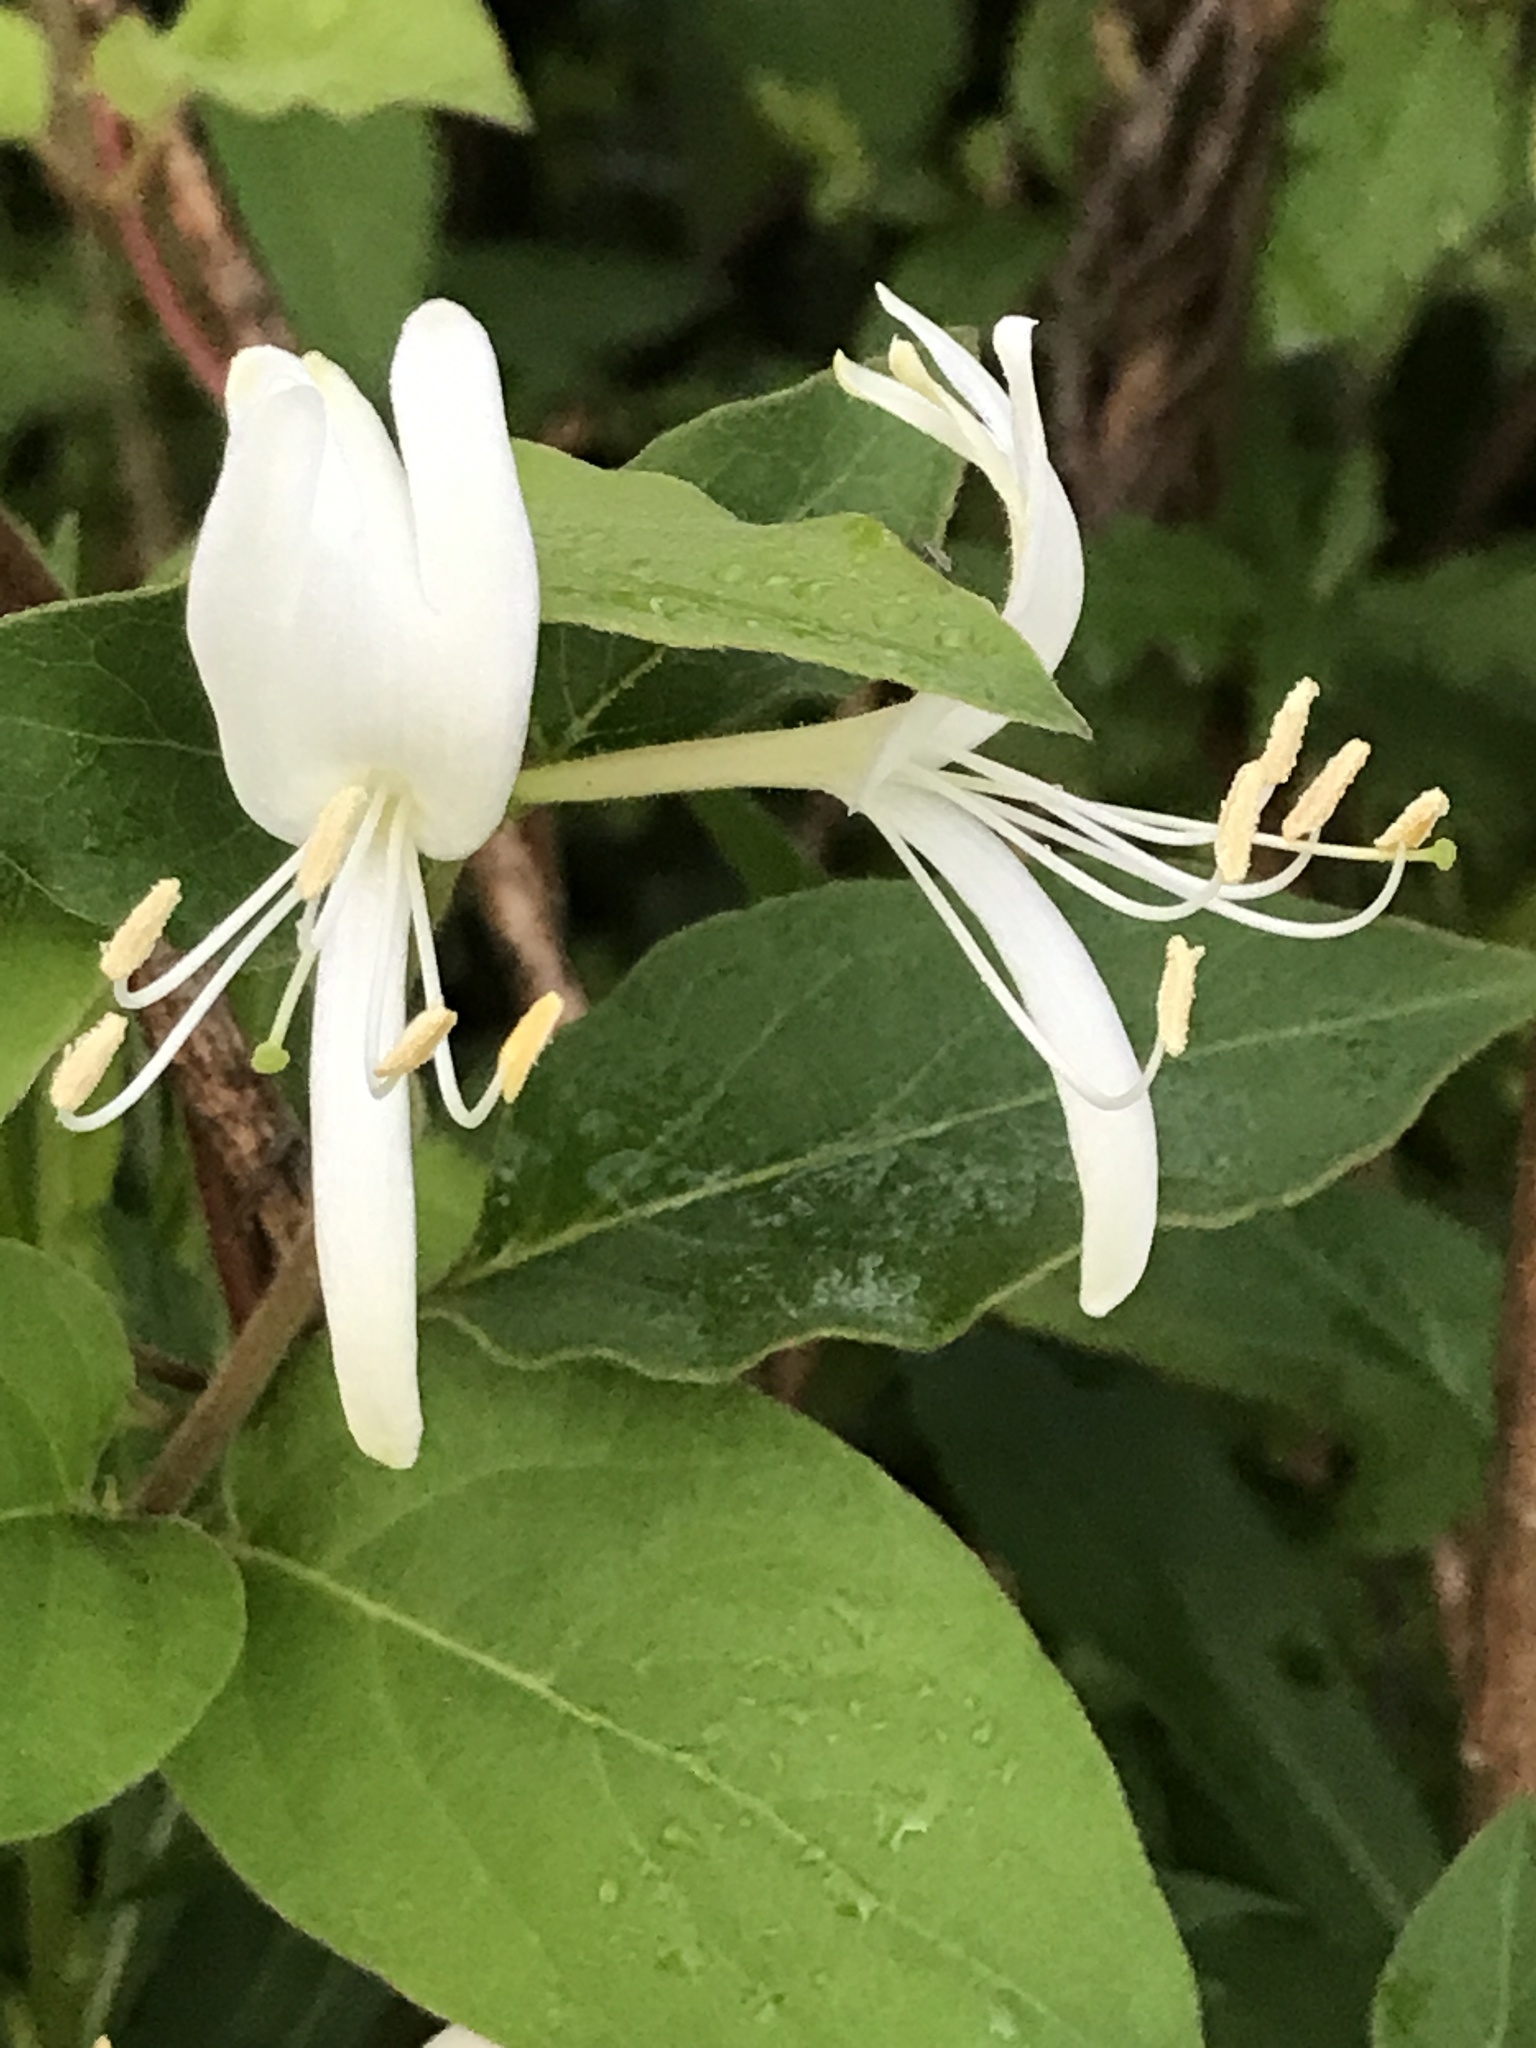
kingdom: Plantae
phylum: Tracheophyta
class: Magnoliopsida
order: Dipsacales
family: Caprifoliaceae
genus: Lonicera
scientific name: Lonicera japonica
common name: Japanese honeysuckle
